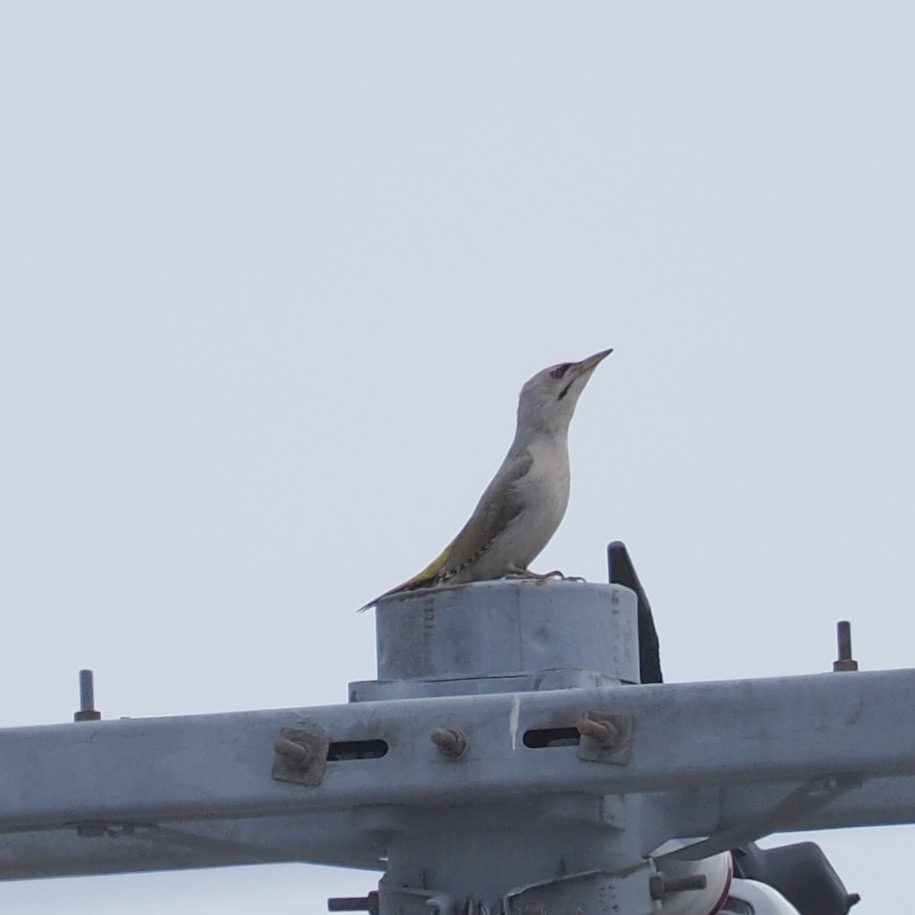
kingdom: Animalia
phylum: Chordata
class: Aves
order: Piciformes
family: Picidae
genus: Picus
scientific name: Picus canus
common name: Grey-headed woodpecker
